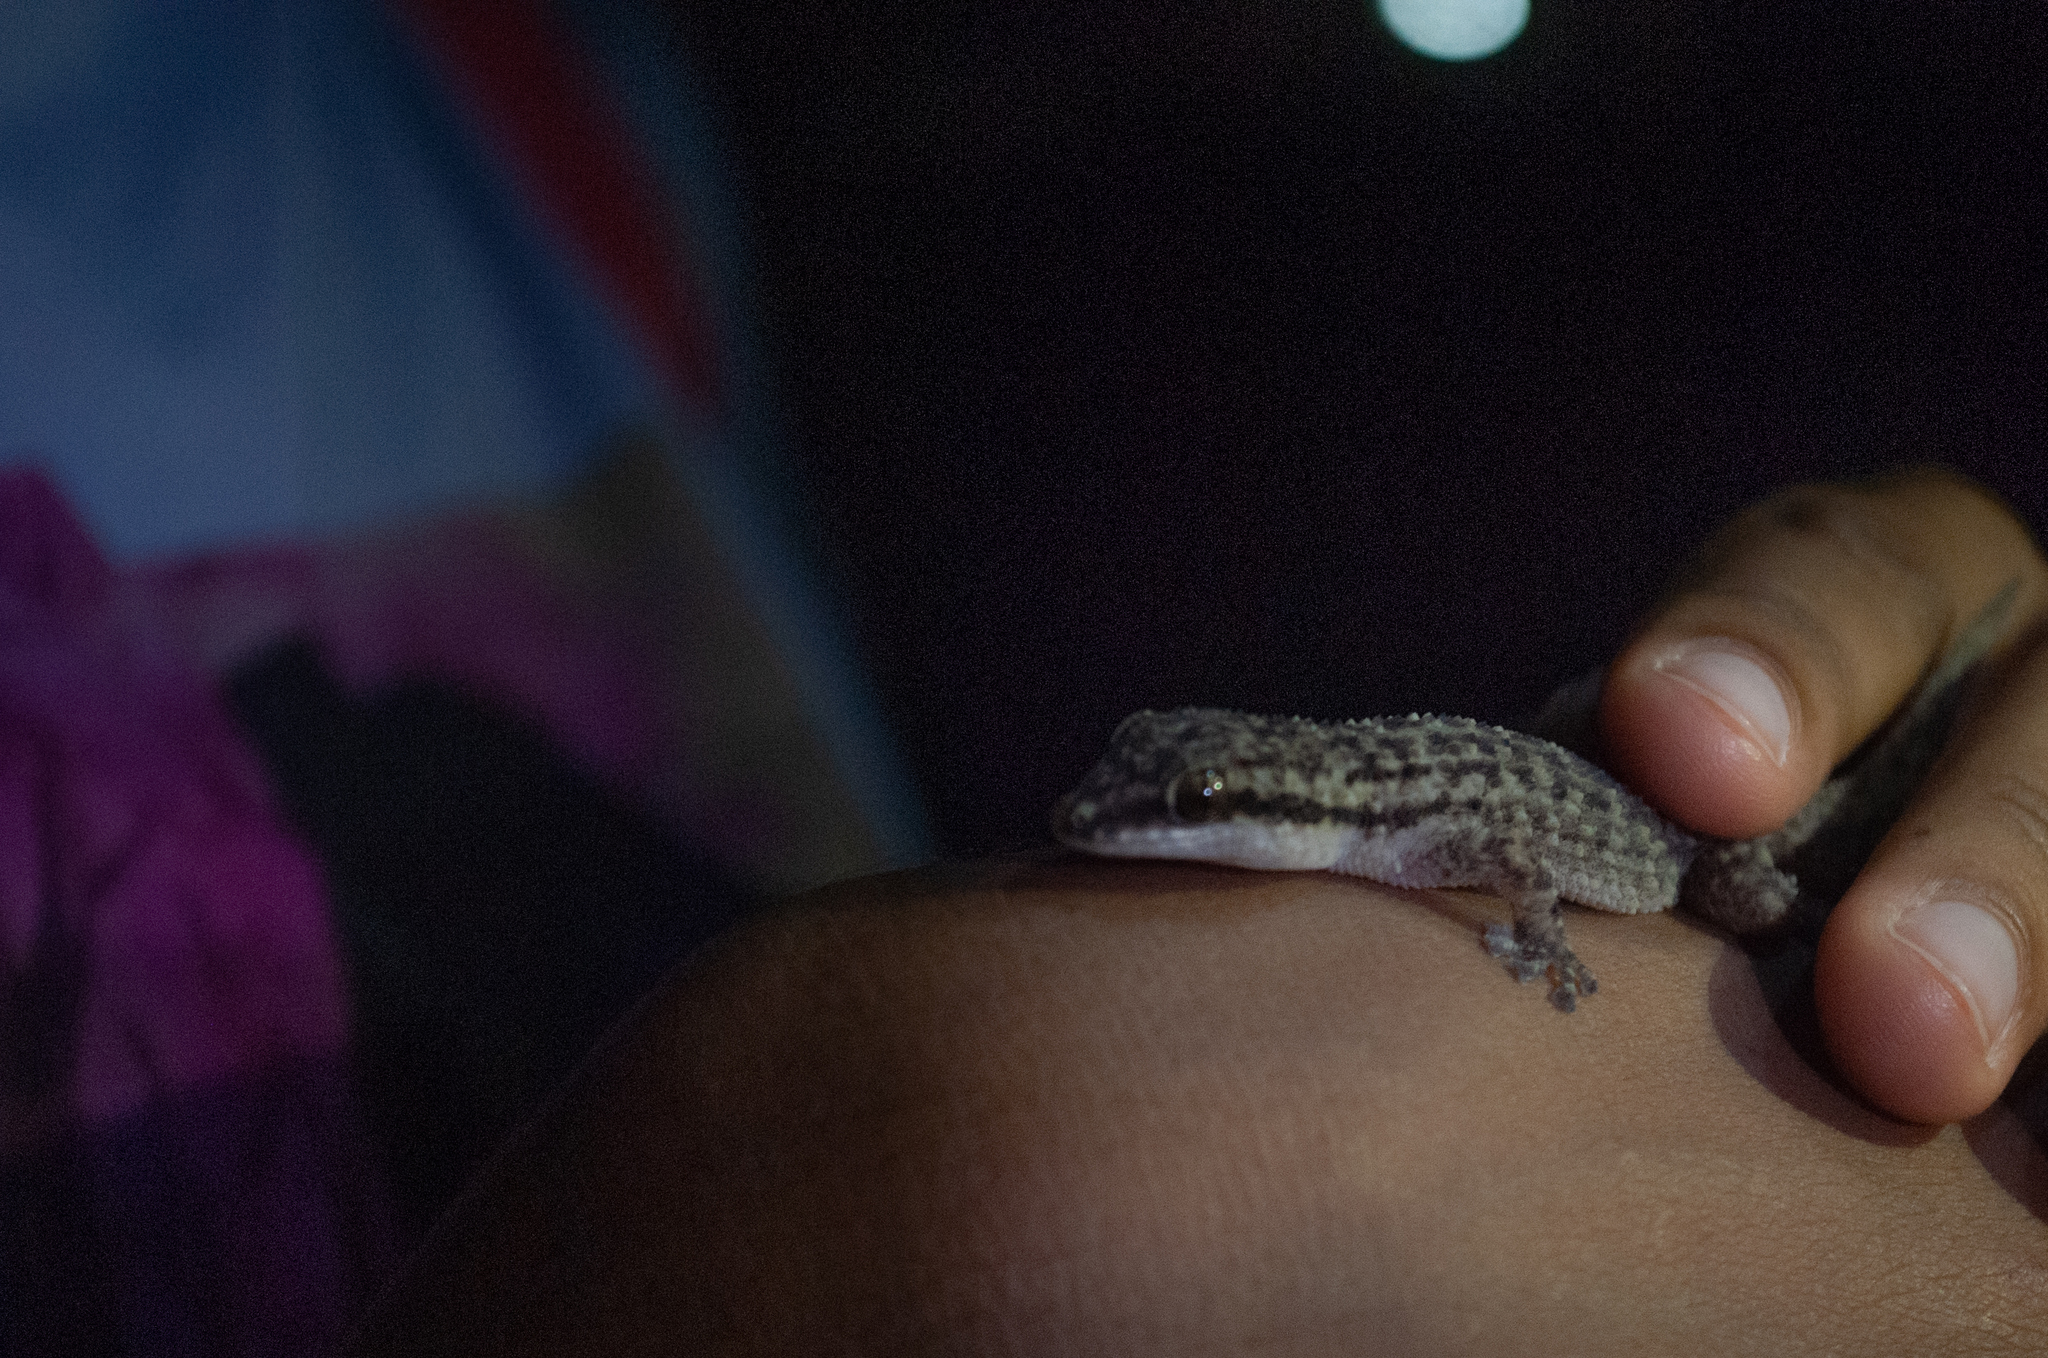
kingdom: Animalia
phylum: Chordata
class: Squamata
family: Phyllodactylidae
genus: Phyllodactylus
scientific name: Phyllodactylus ventralis
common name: Margarita leaf-toed gecko
